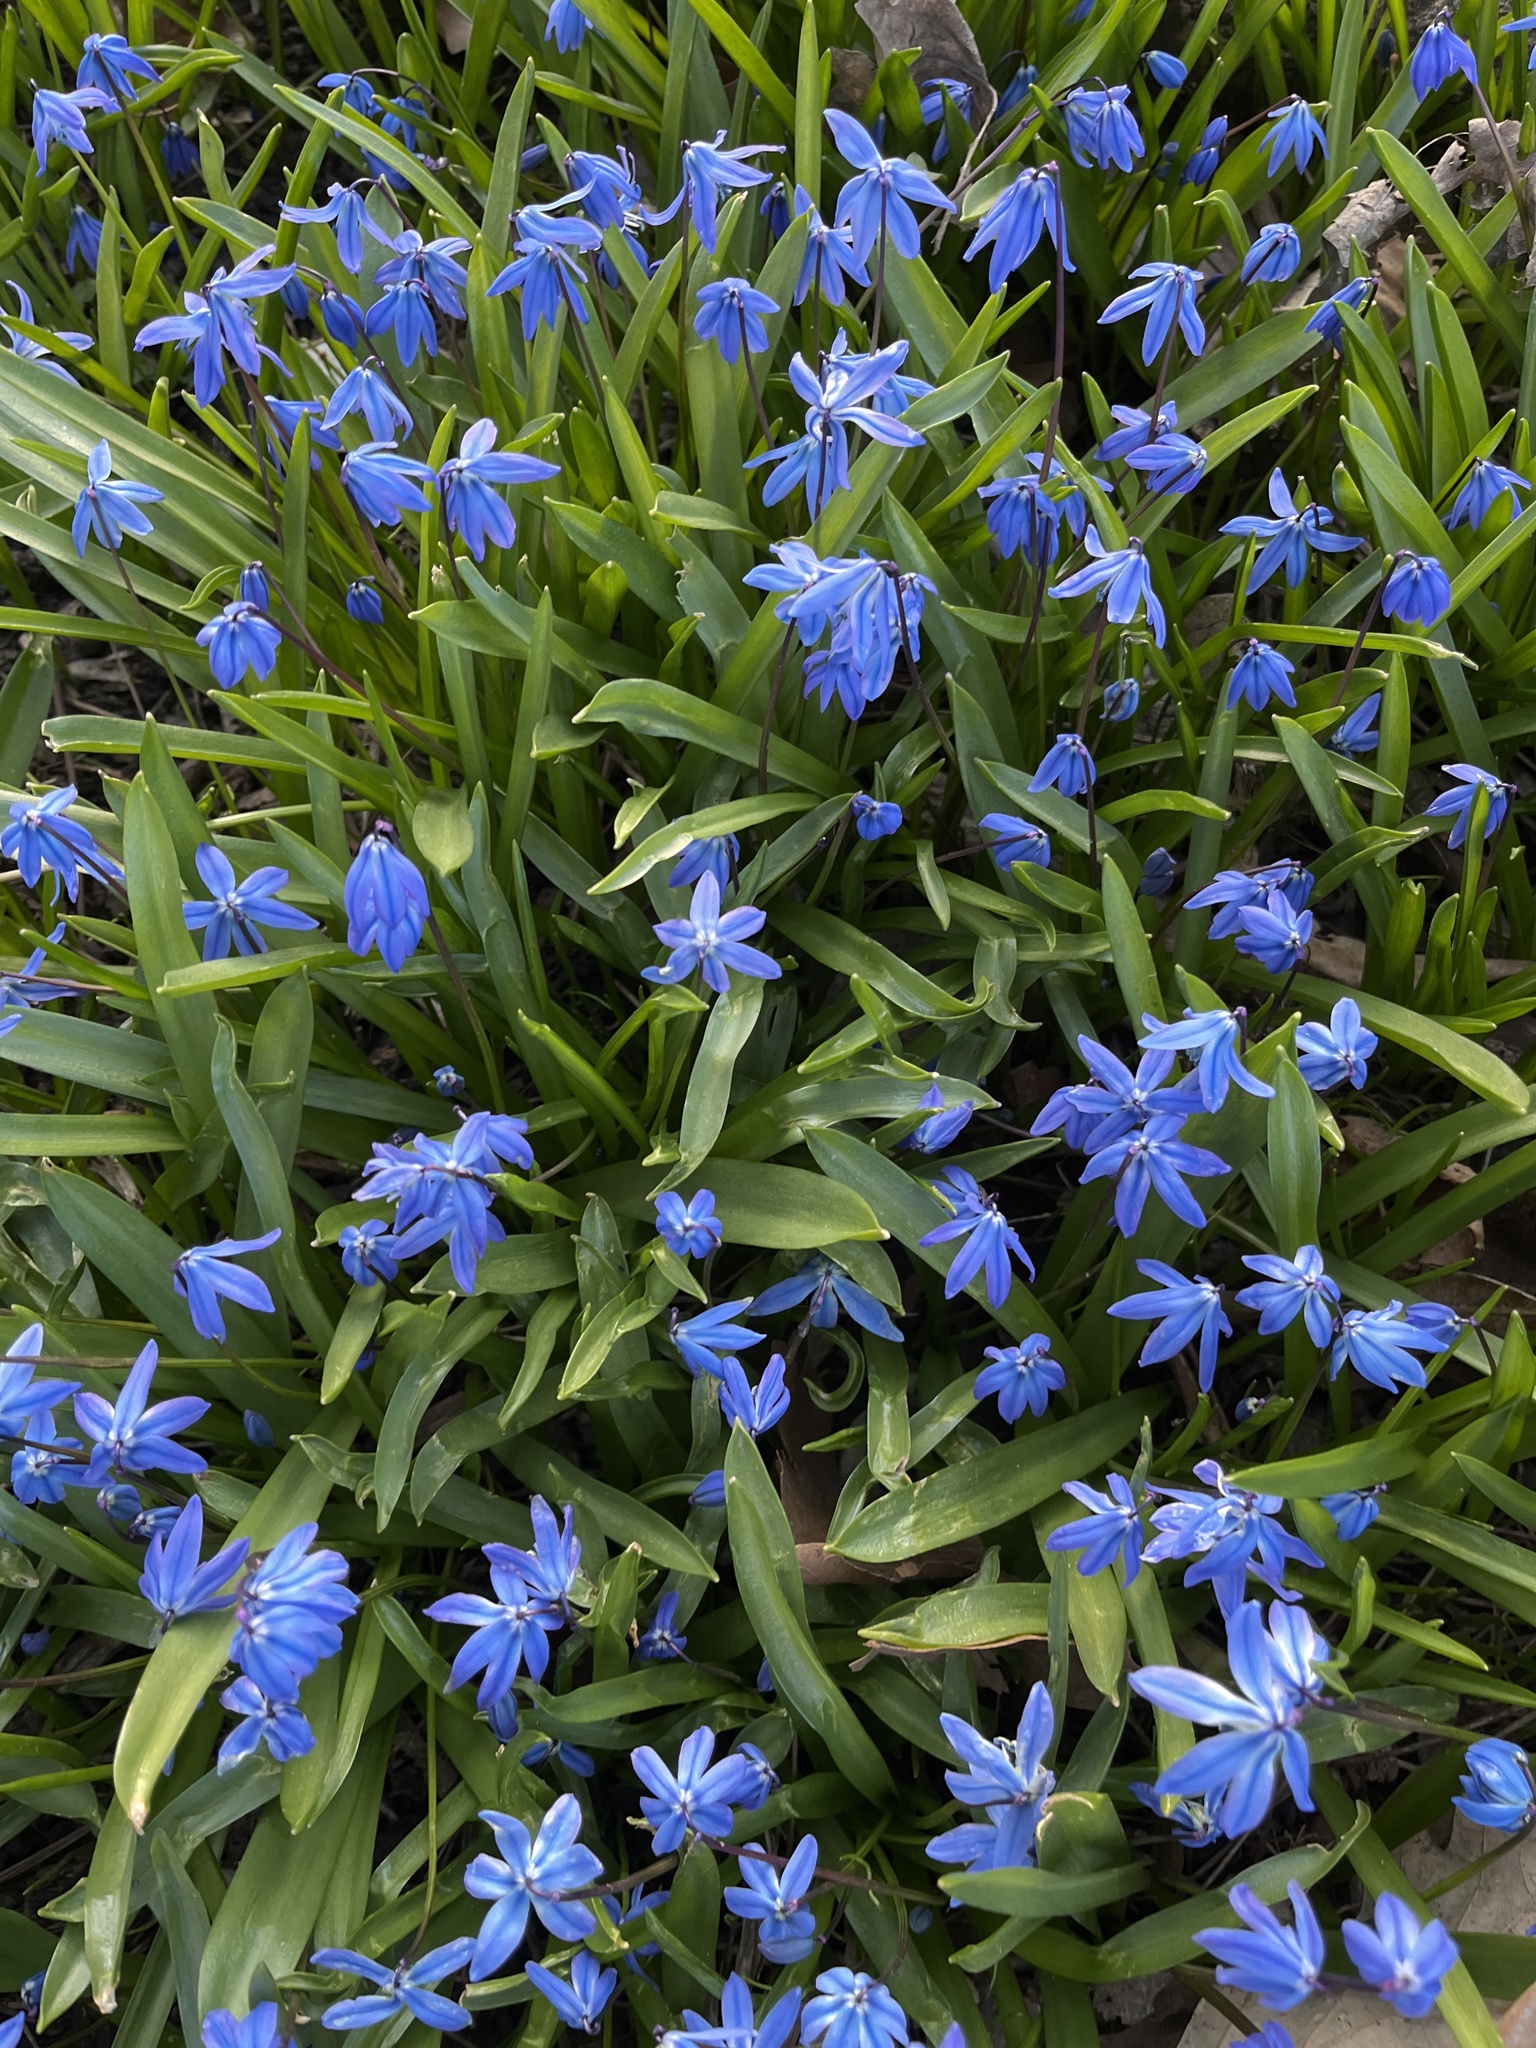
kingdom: Plantae
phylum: Tracheophyta
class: Liliopsida
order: Asparagales
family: Asparagaceae
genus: Scilla
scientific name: Scilla siberica
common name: Siberian squill
